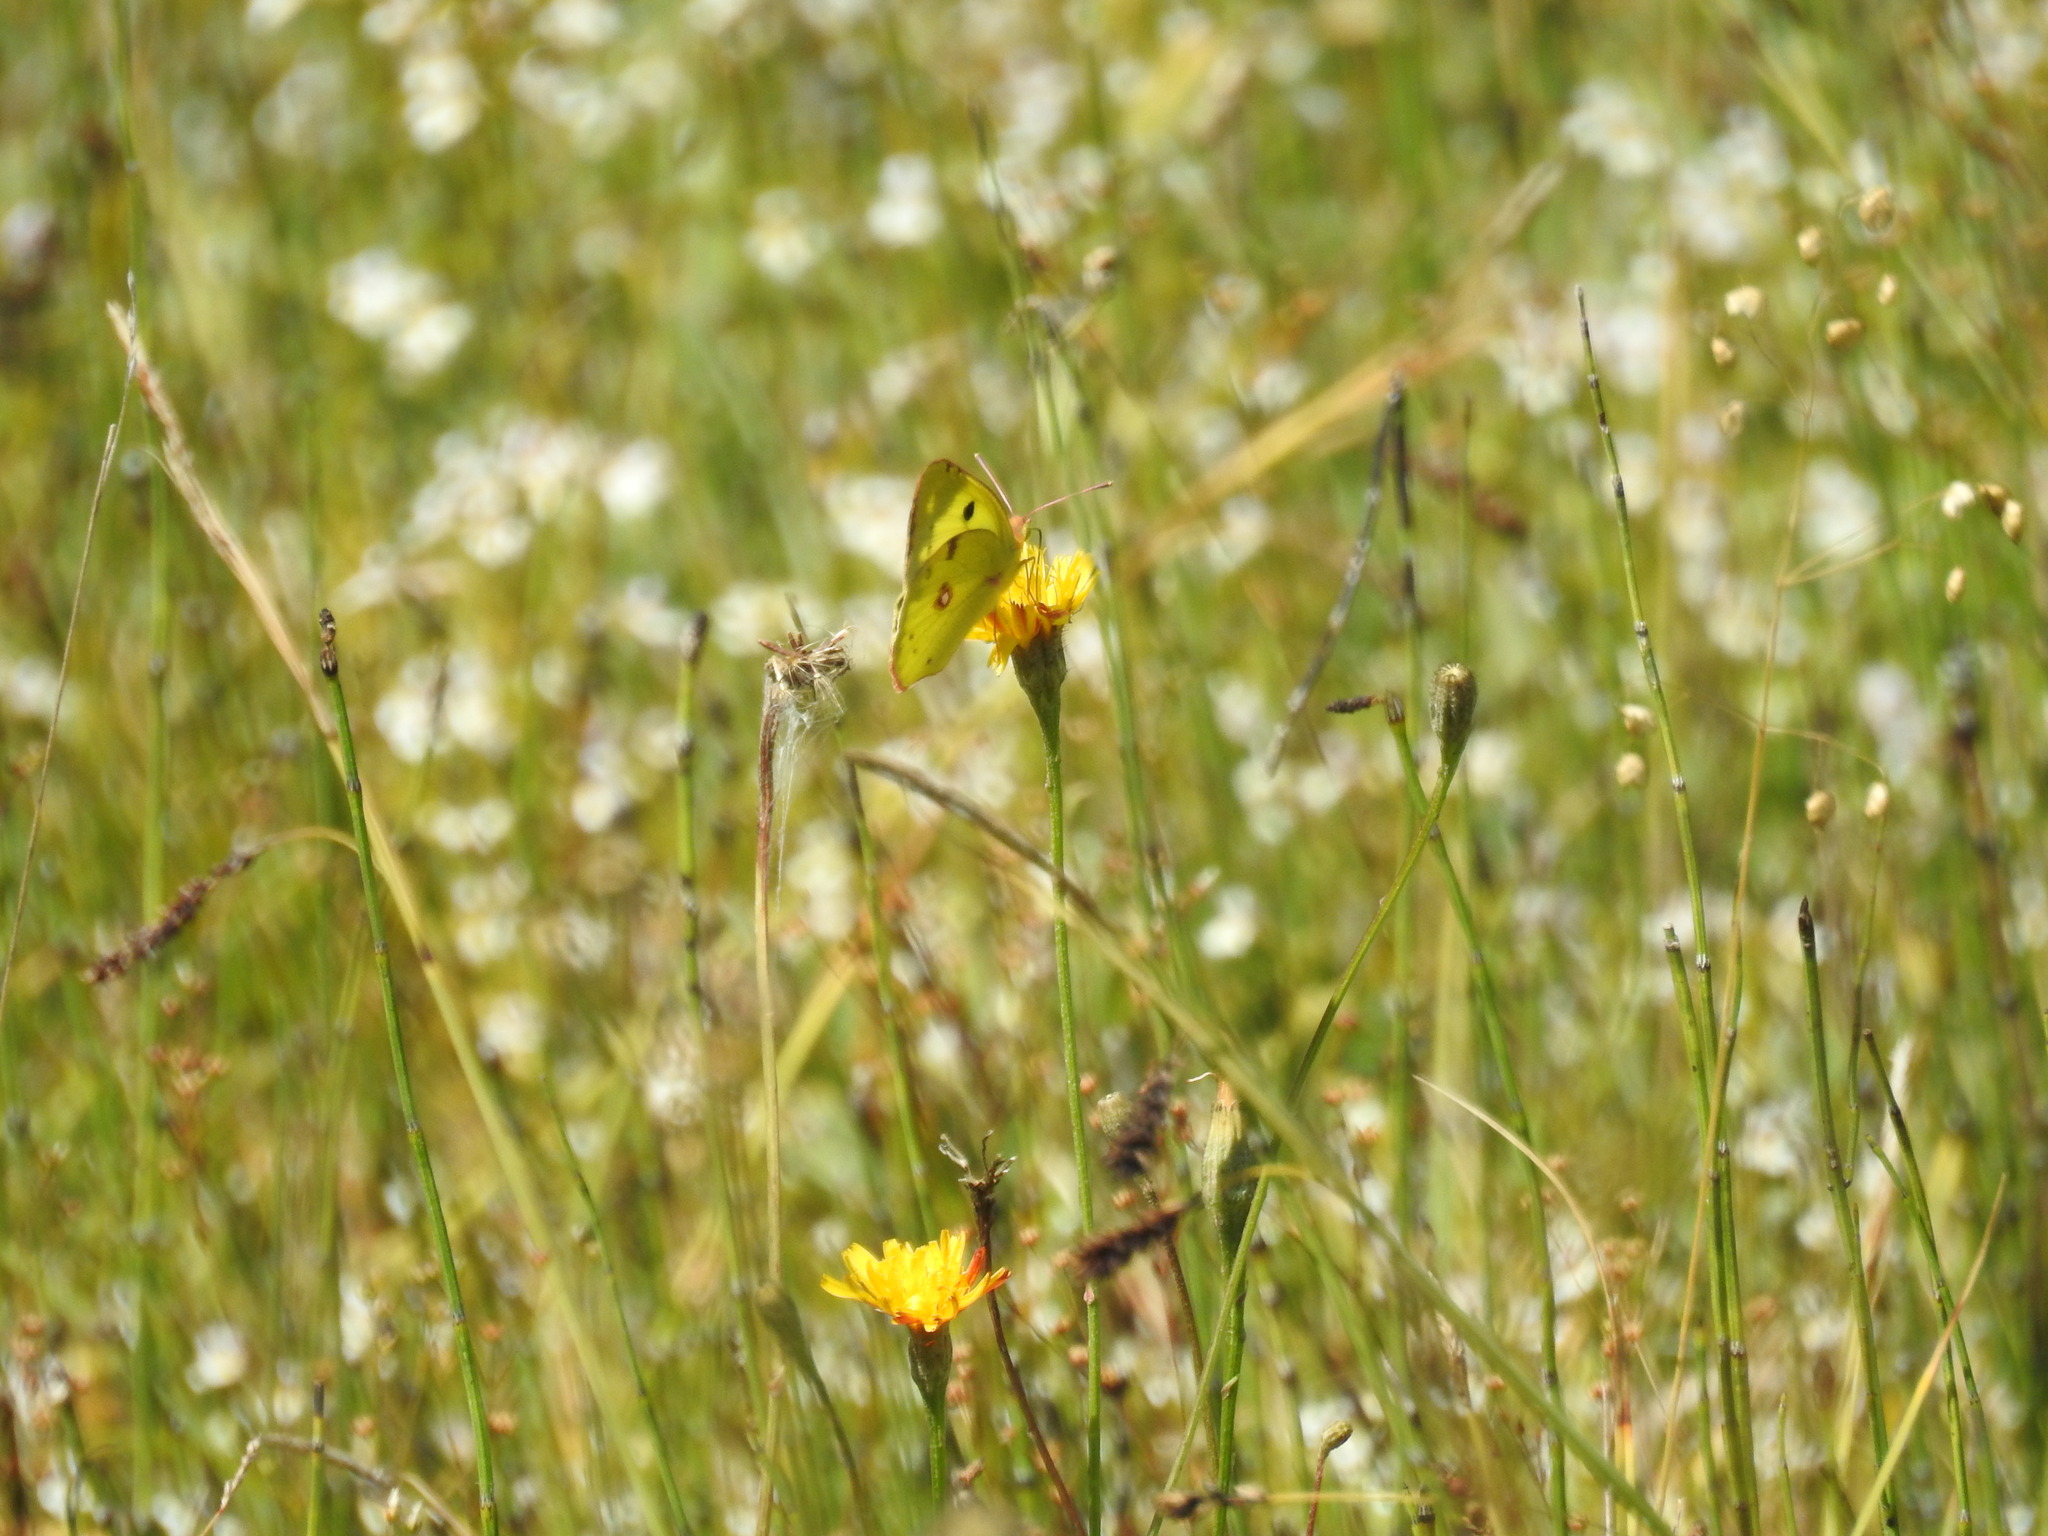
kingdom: Animalia
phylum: Arthropoda
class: Insecta
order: Lepidoptera
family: Pieridae
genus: Colias
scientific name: Colias hyale
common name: Pale clouded yellow
